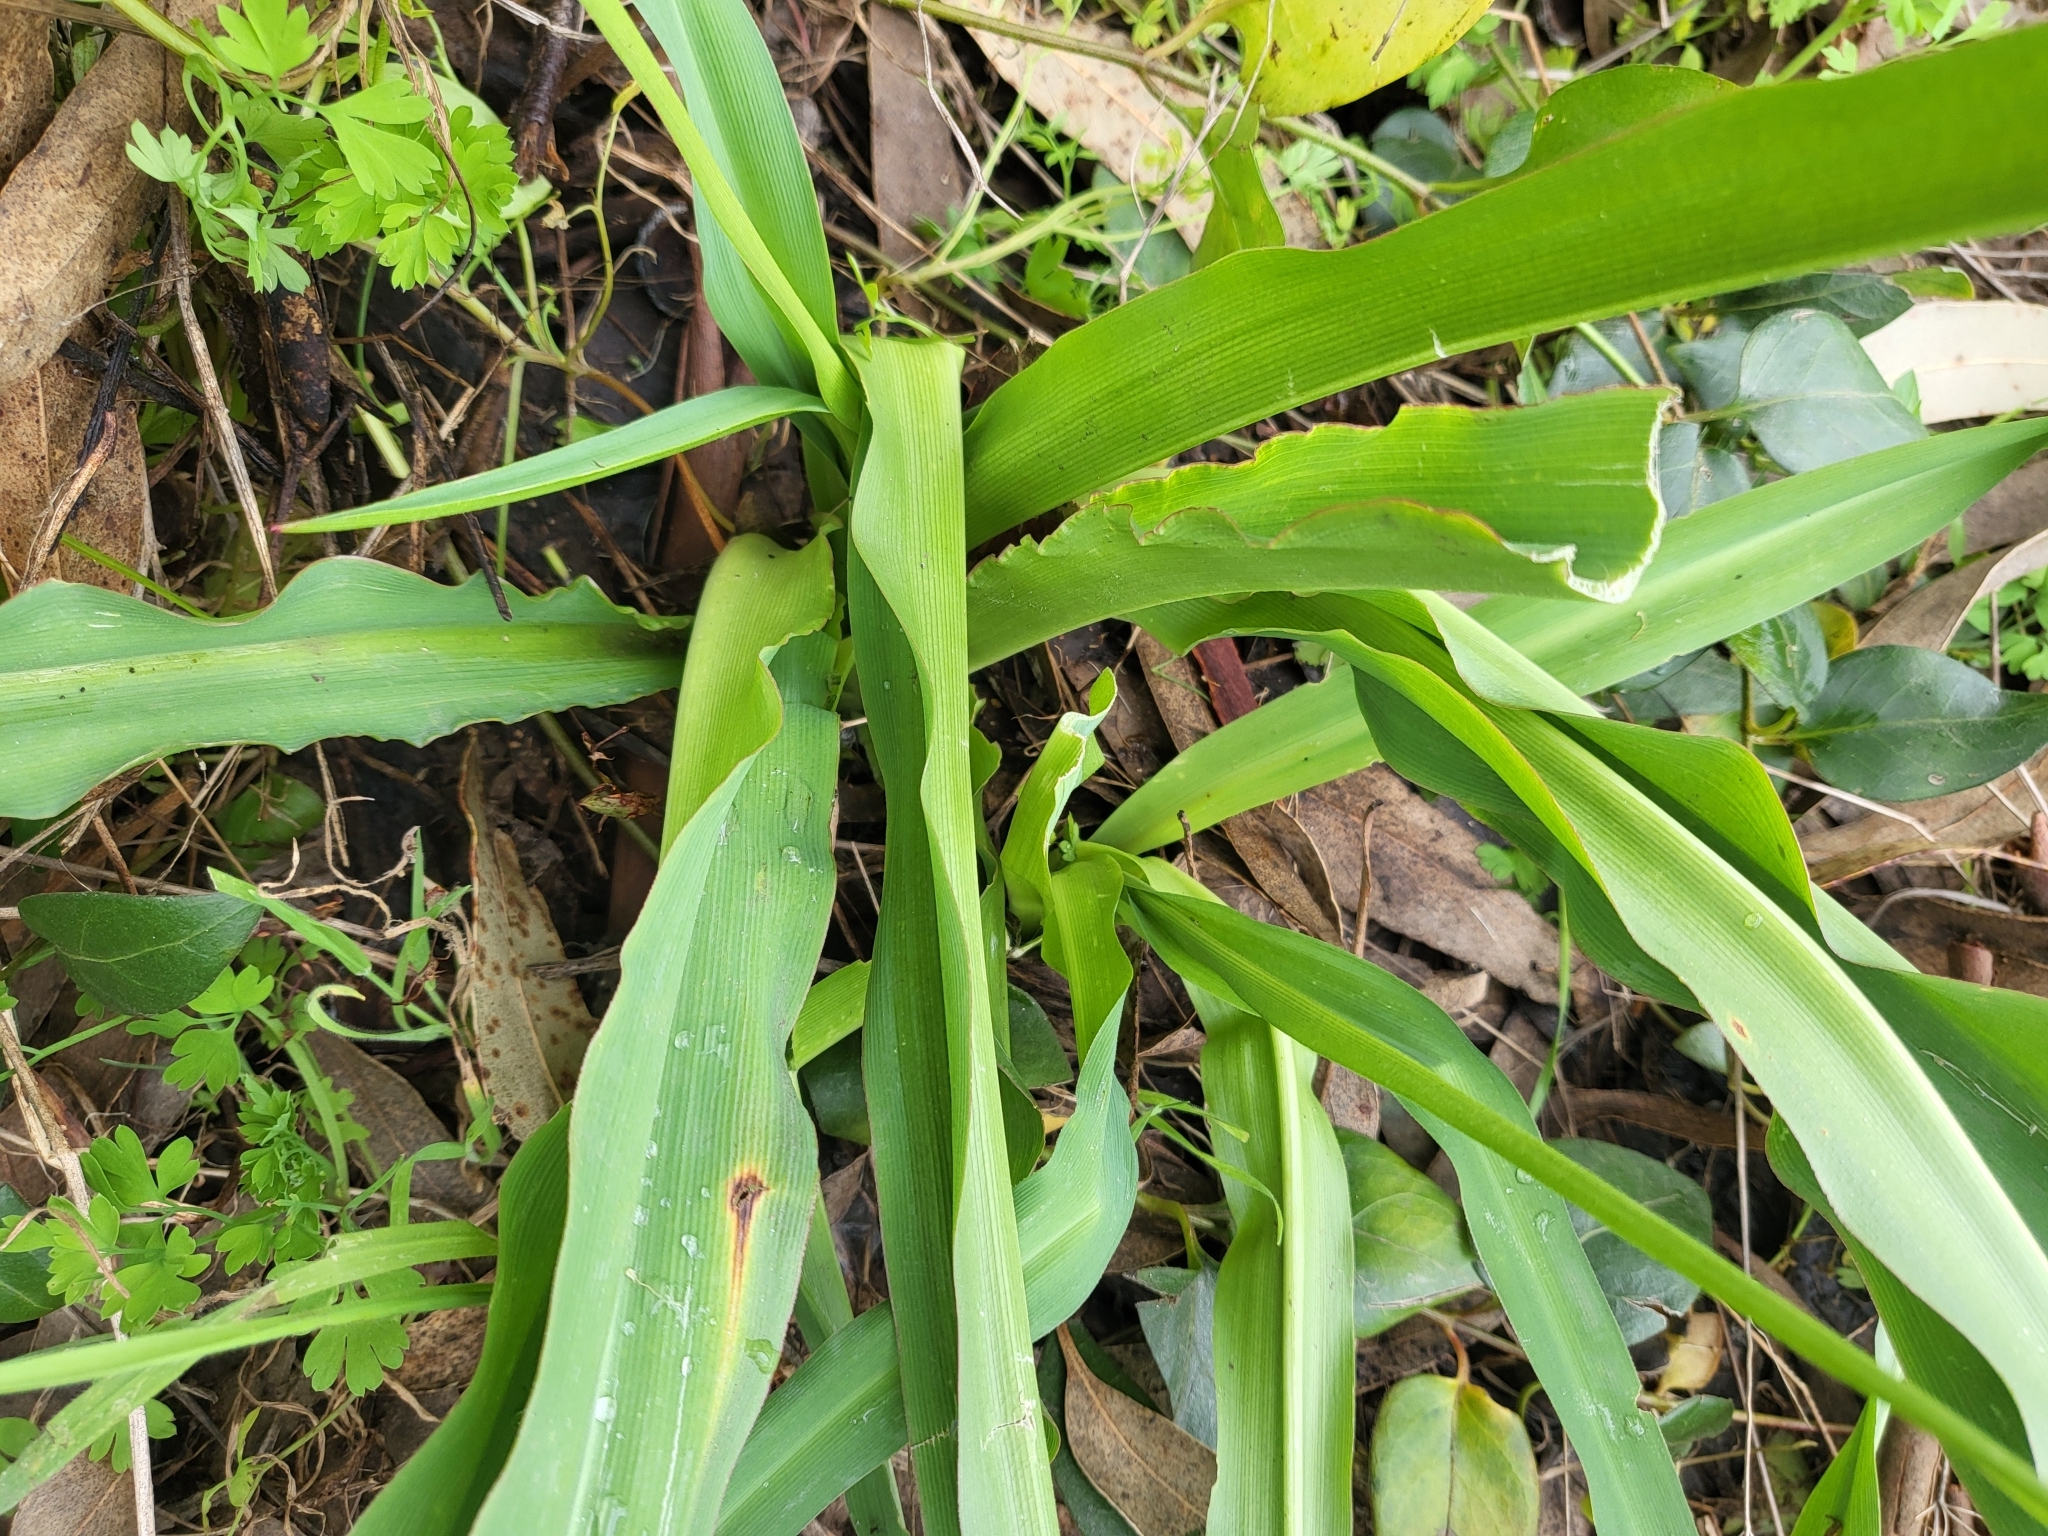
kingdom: Plantae
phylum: Tracheophyta
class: Liliopsida
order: Asparagales
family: Asparagaceae
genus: Chlorogalum
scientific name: Chlorogalum pomeridianum
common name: Amole
